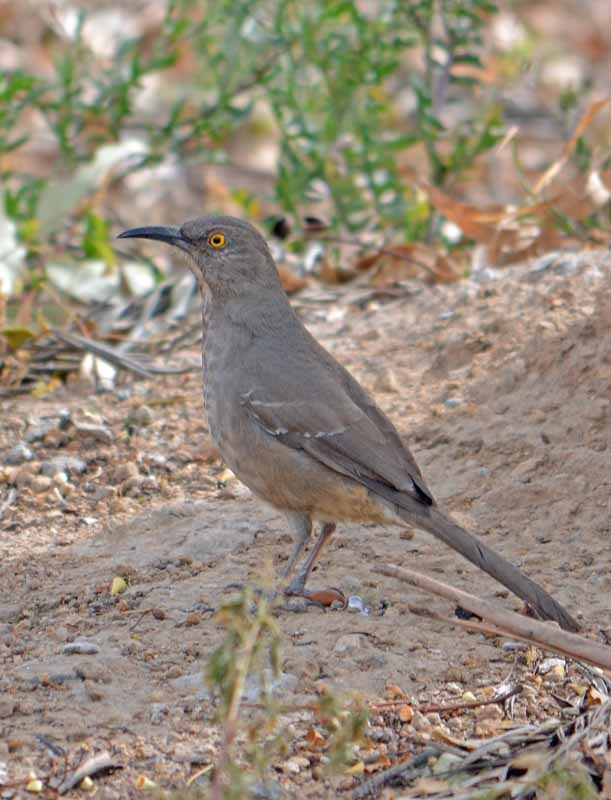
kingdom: Animalia
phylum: Chordata
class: Aves
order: Passeriformes
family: Mimidae
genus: Toxostoma
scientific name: Toxostoma curvirostre
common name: Curve-billed thrasher
